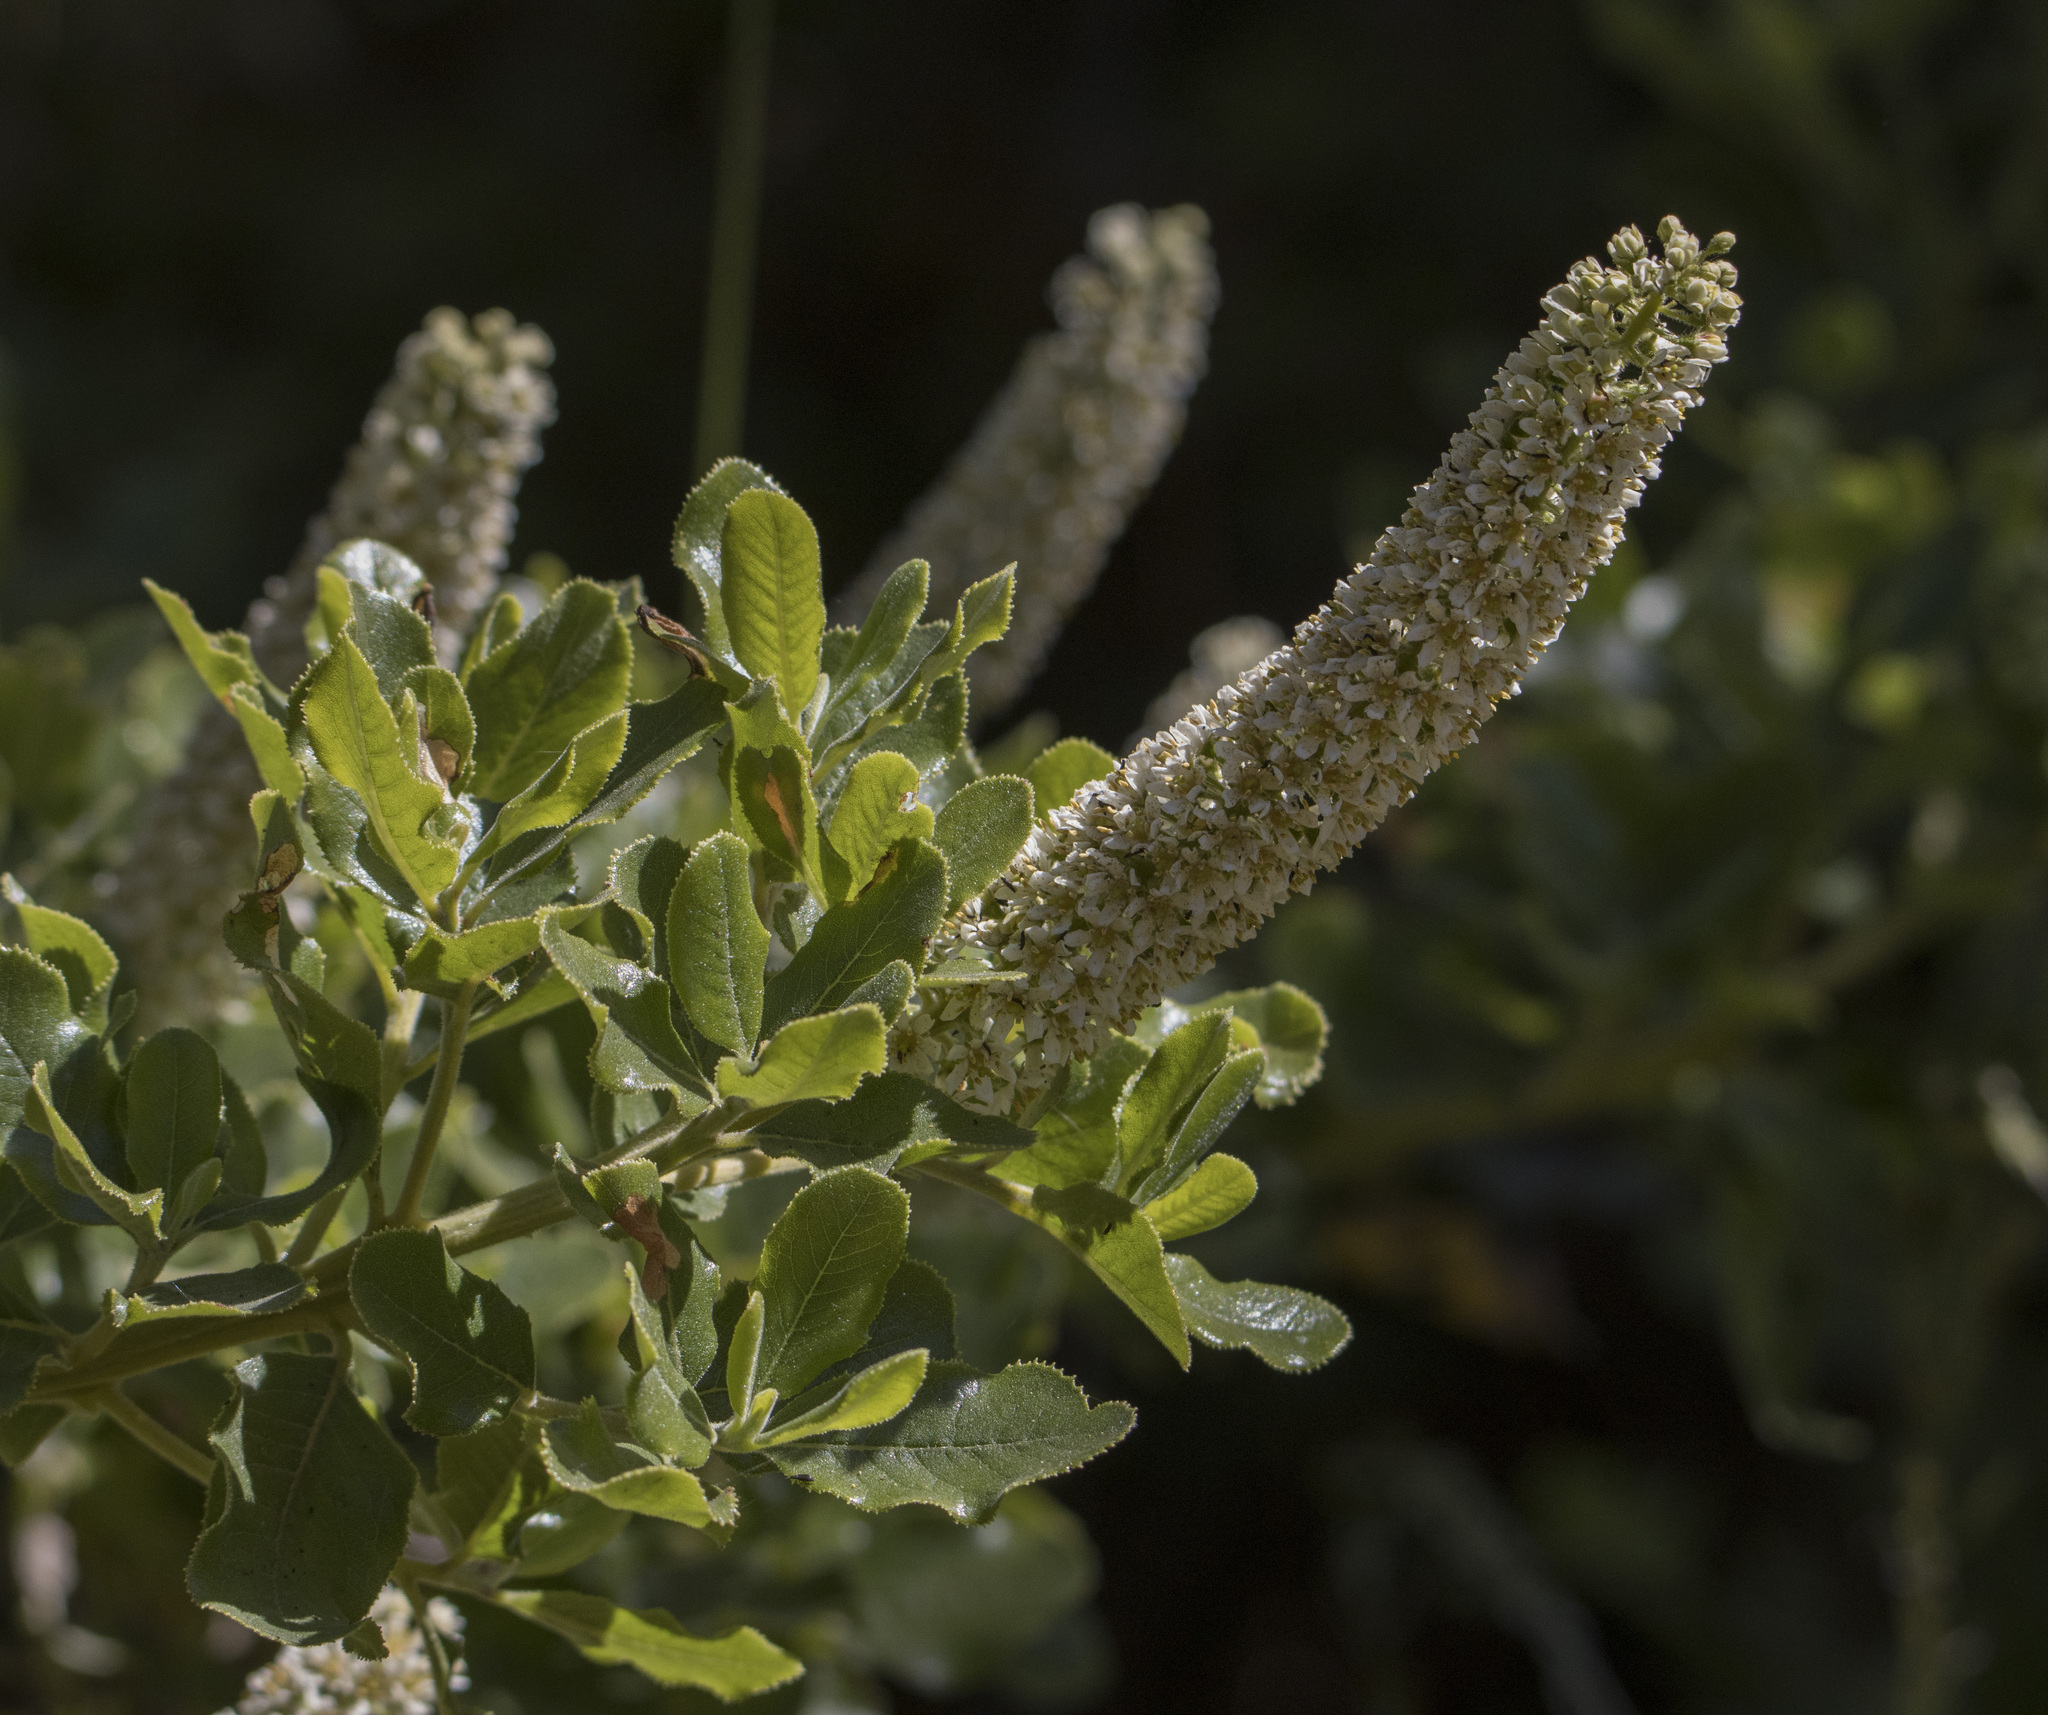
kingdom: Plantae
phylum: Tracheophyta
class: Magnoliopsida
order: Escalloniales
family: Escalloniaceae
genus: Escallonia
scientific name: Escallonia pulverulenta
